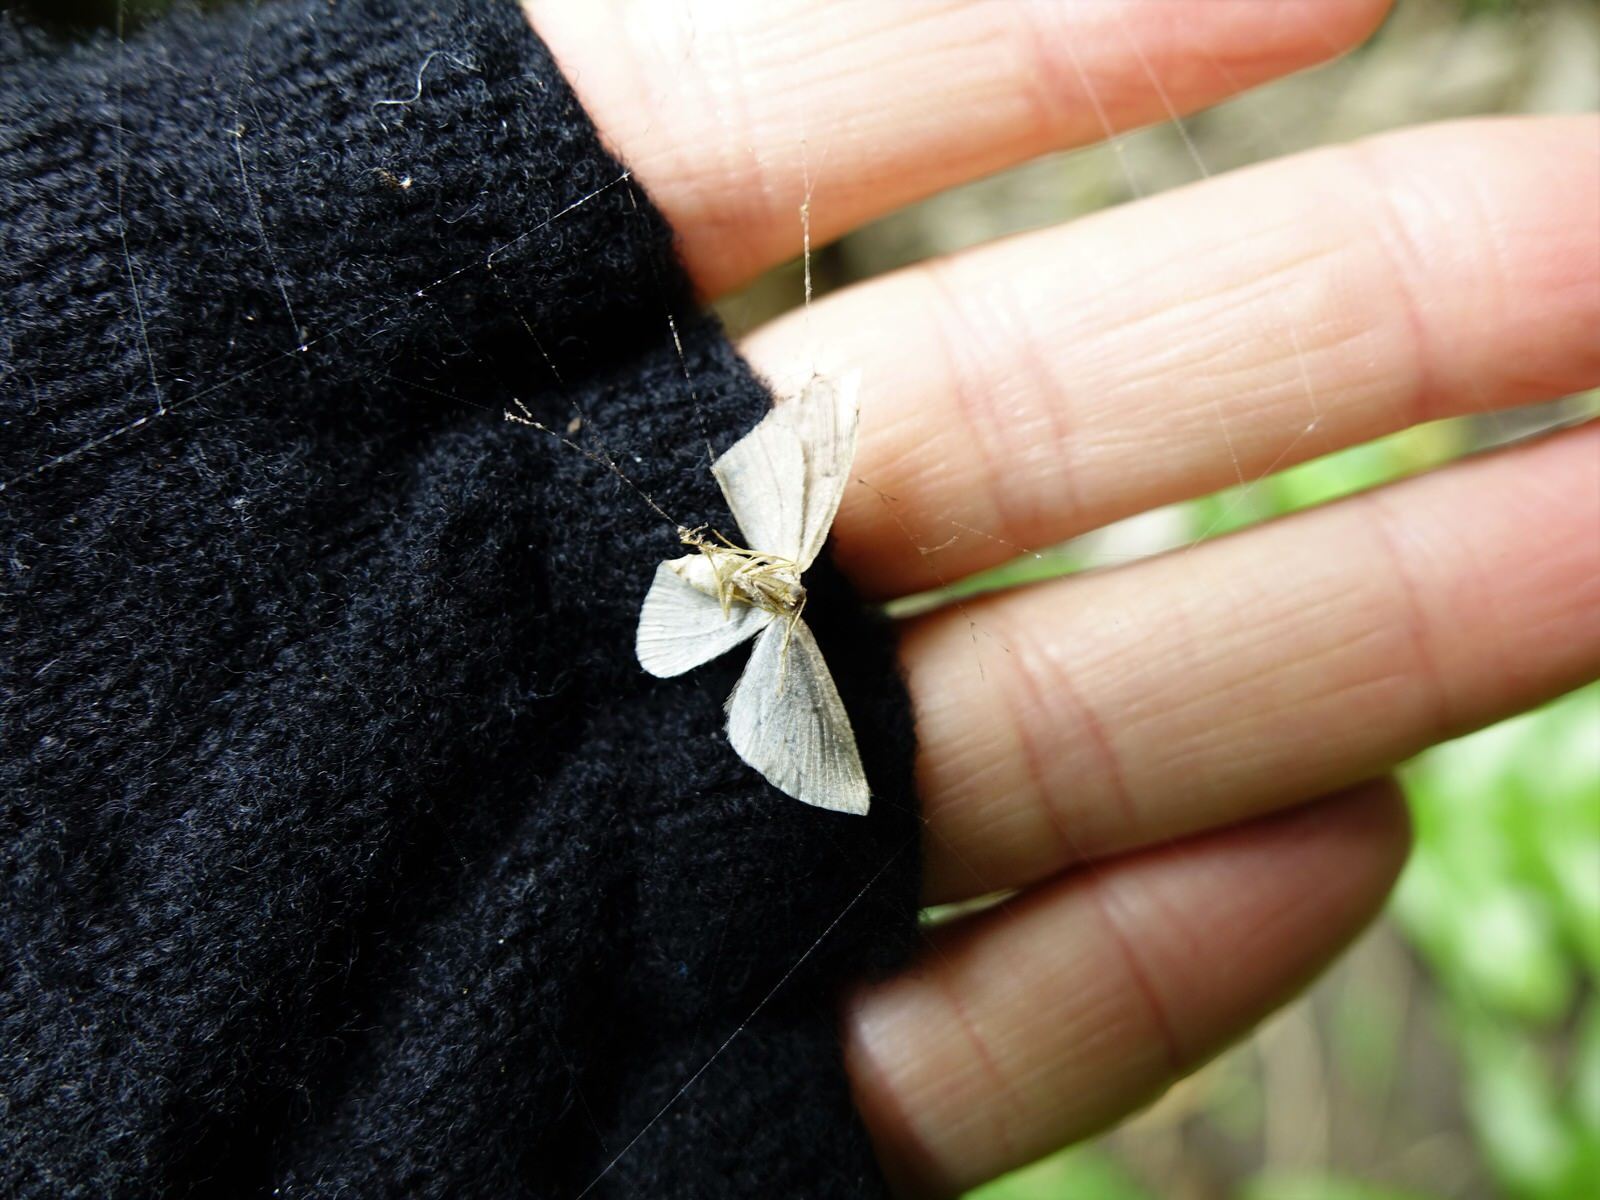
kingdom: Animalia
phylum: Arthropoda
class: Insecta
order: Lepidoptera
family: Geometridae
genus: Poecilasthena
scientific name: Poecilasthena schistaria
